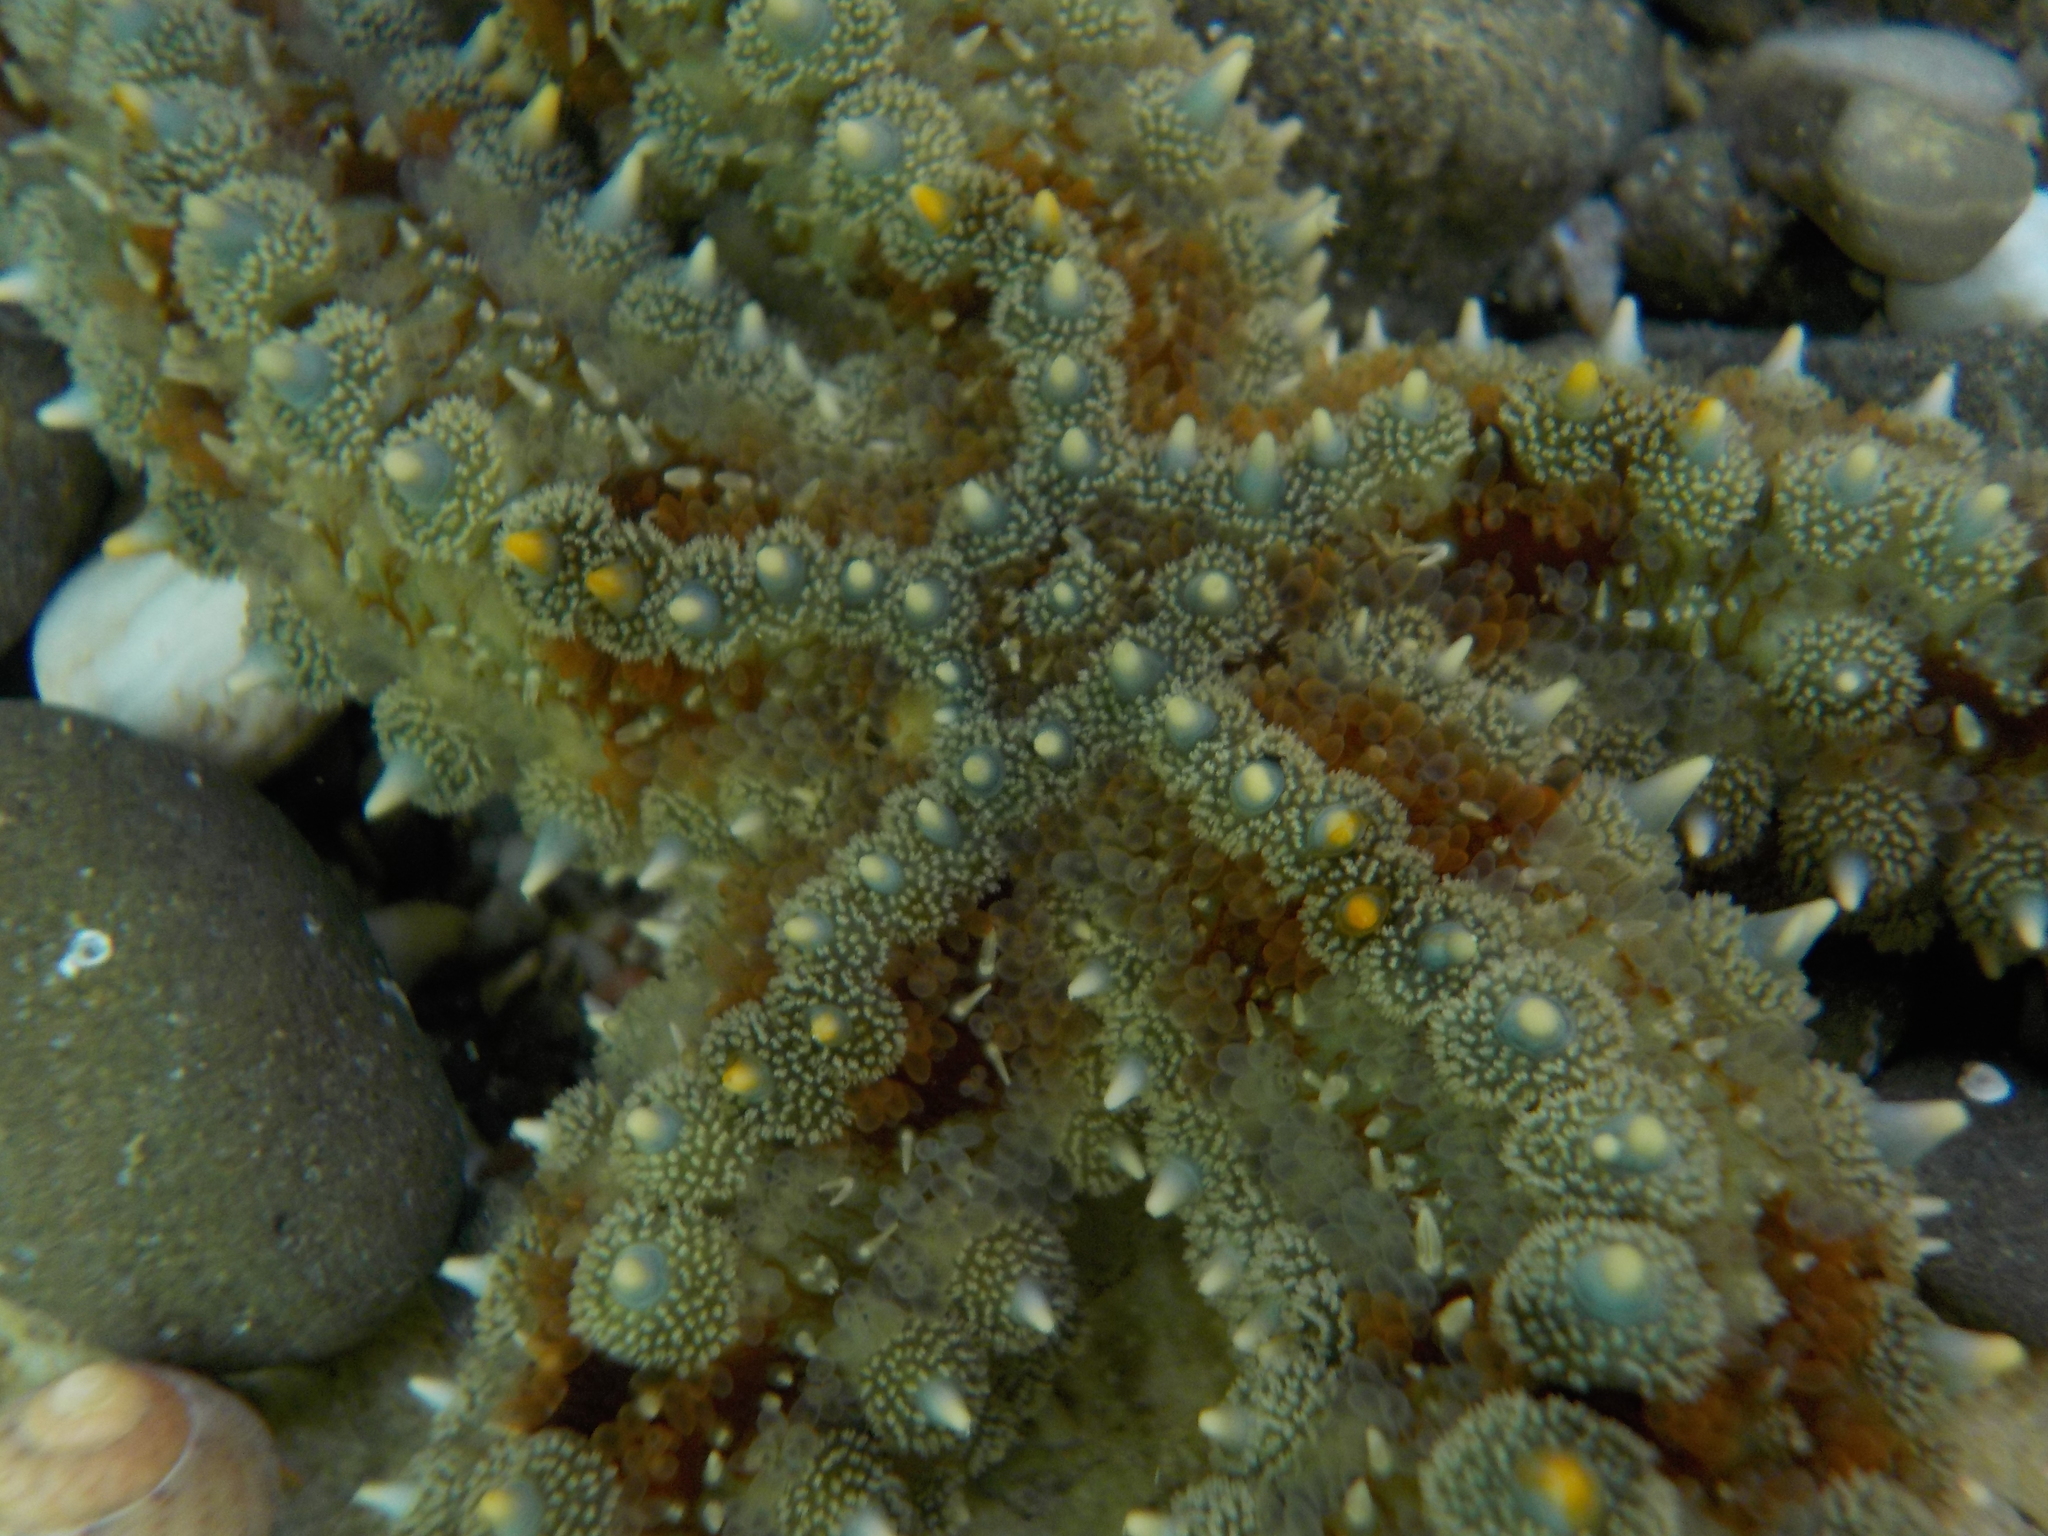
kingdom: Animalia
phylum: Echinodermata
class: Asteroidea
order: Forcipulatida
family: Asteriidae
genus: Marthasterias
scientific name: Marthasterias glacialis
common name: Spiny starfish
